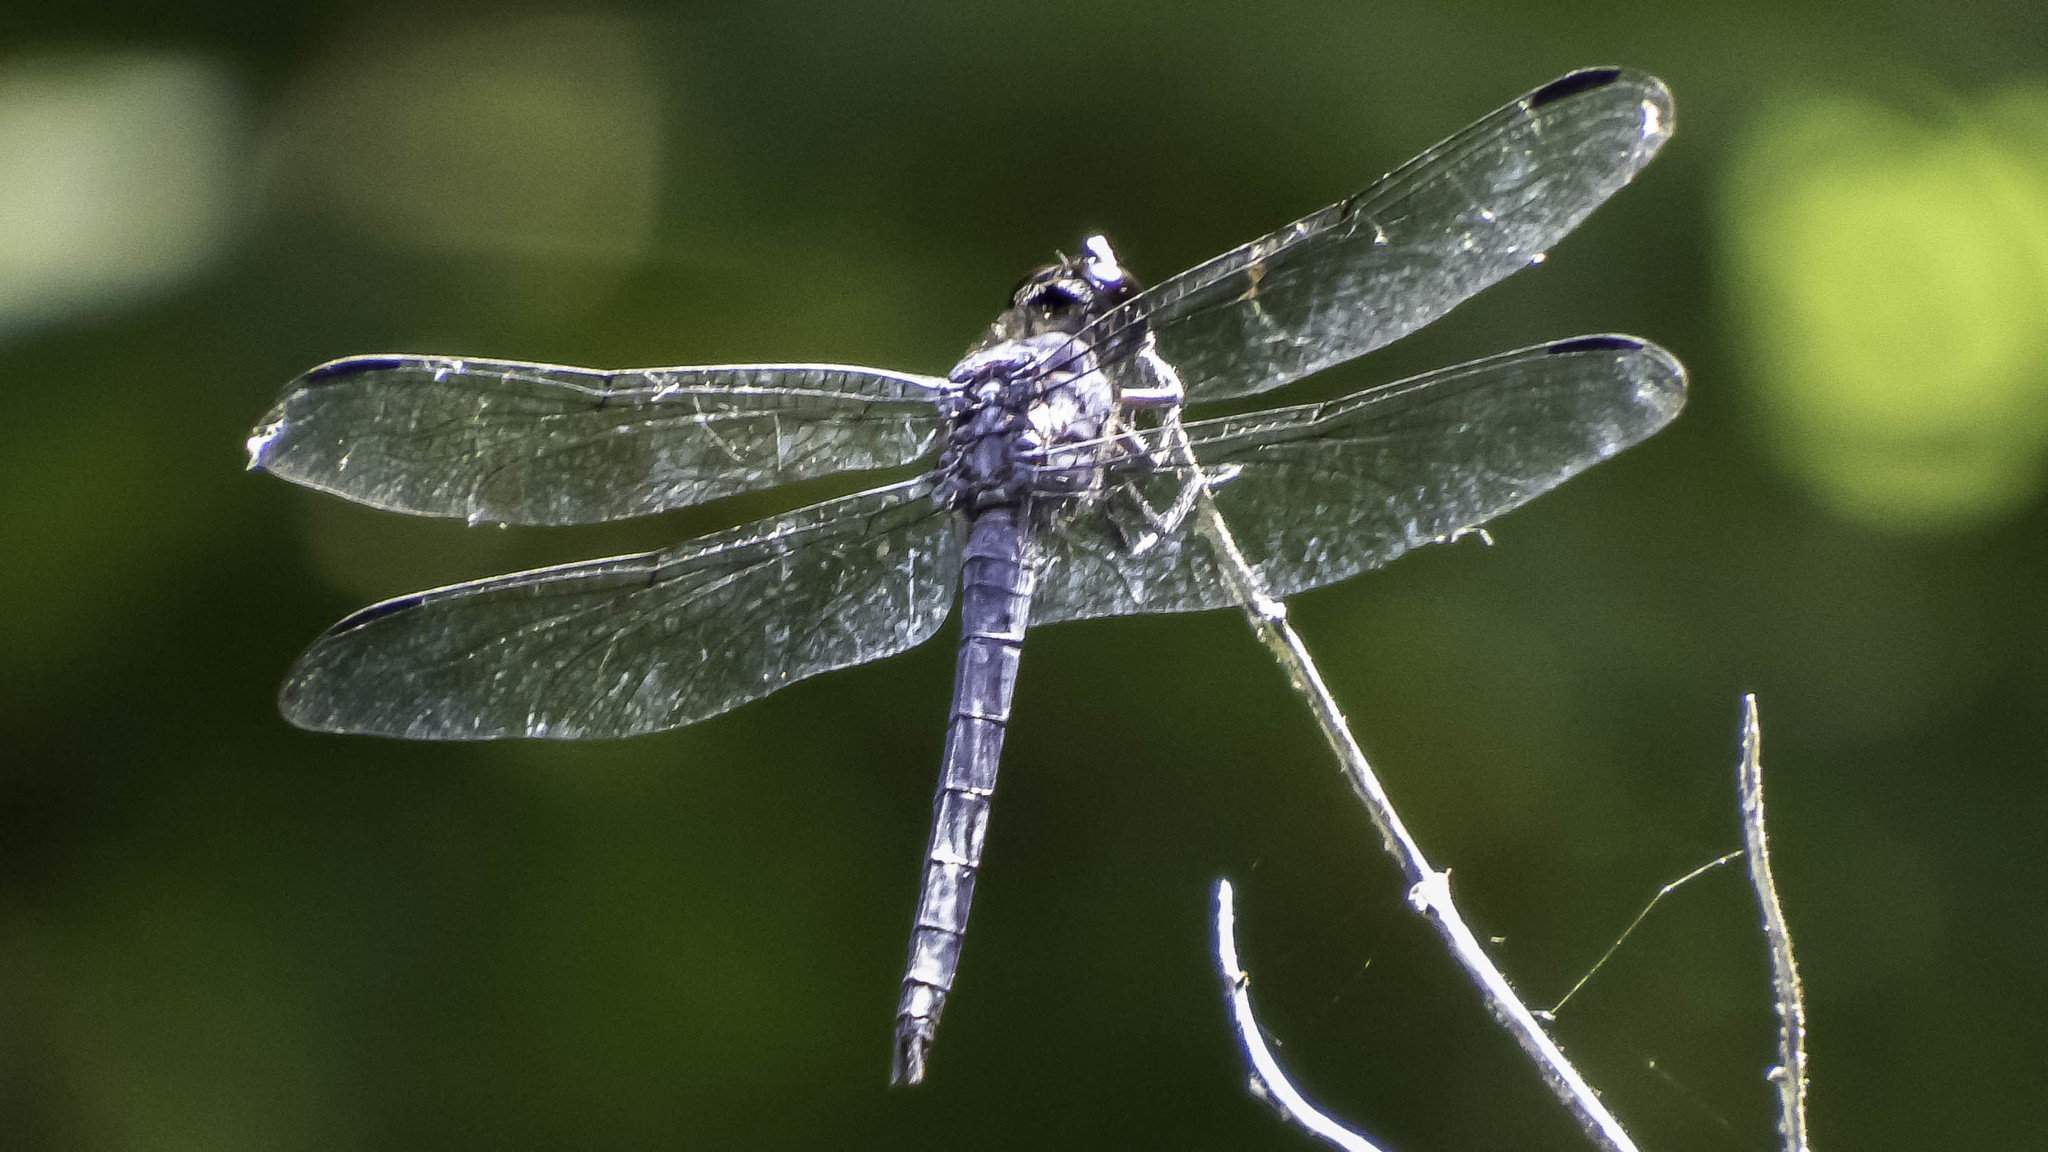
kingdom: Animalia
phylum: Arthropoda
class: Insecta
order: Odonata
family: Libellulidae
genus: Libellula
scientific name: Libellula incesta
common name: Slaty skimmer
